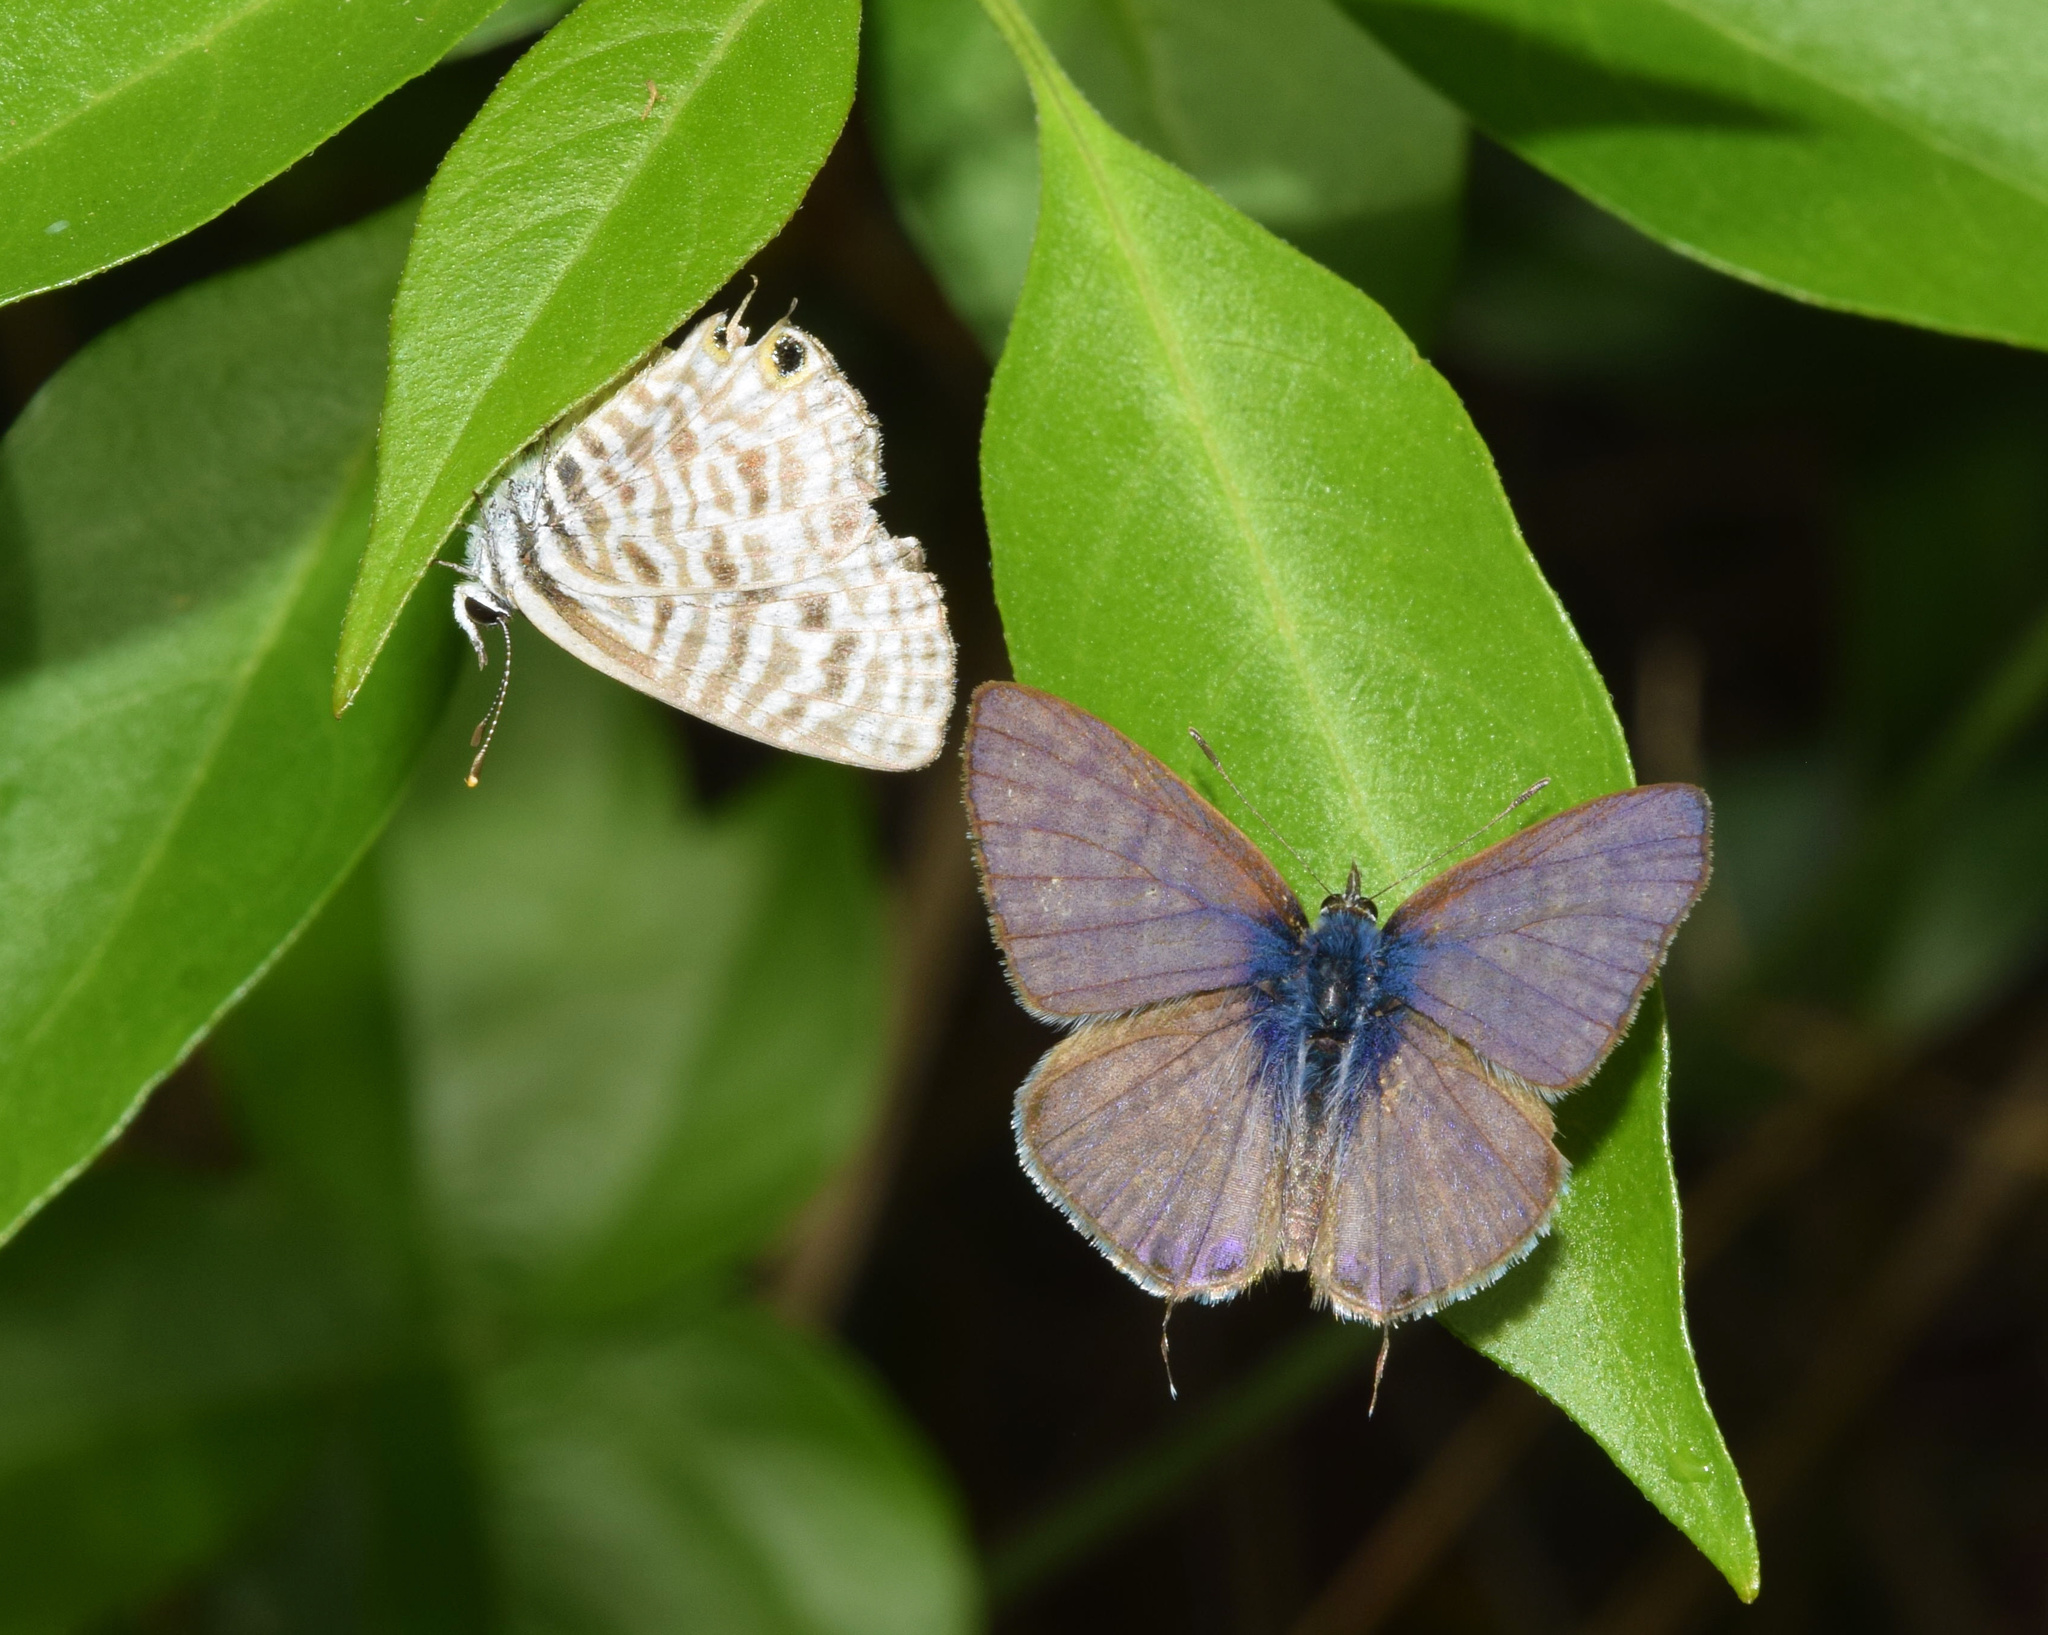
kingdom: Animalia
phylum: Arthropoda
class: Insecta
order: Lepidoptera
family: Lycaenidae
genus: Leptotes
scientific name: Leptotes
